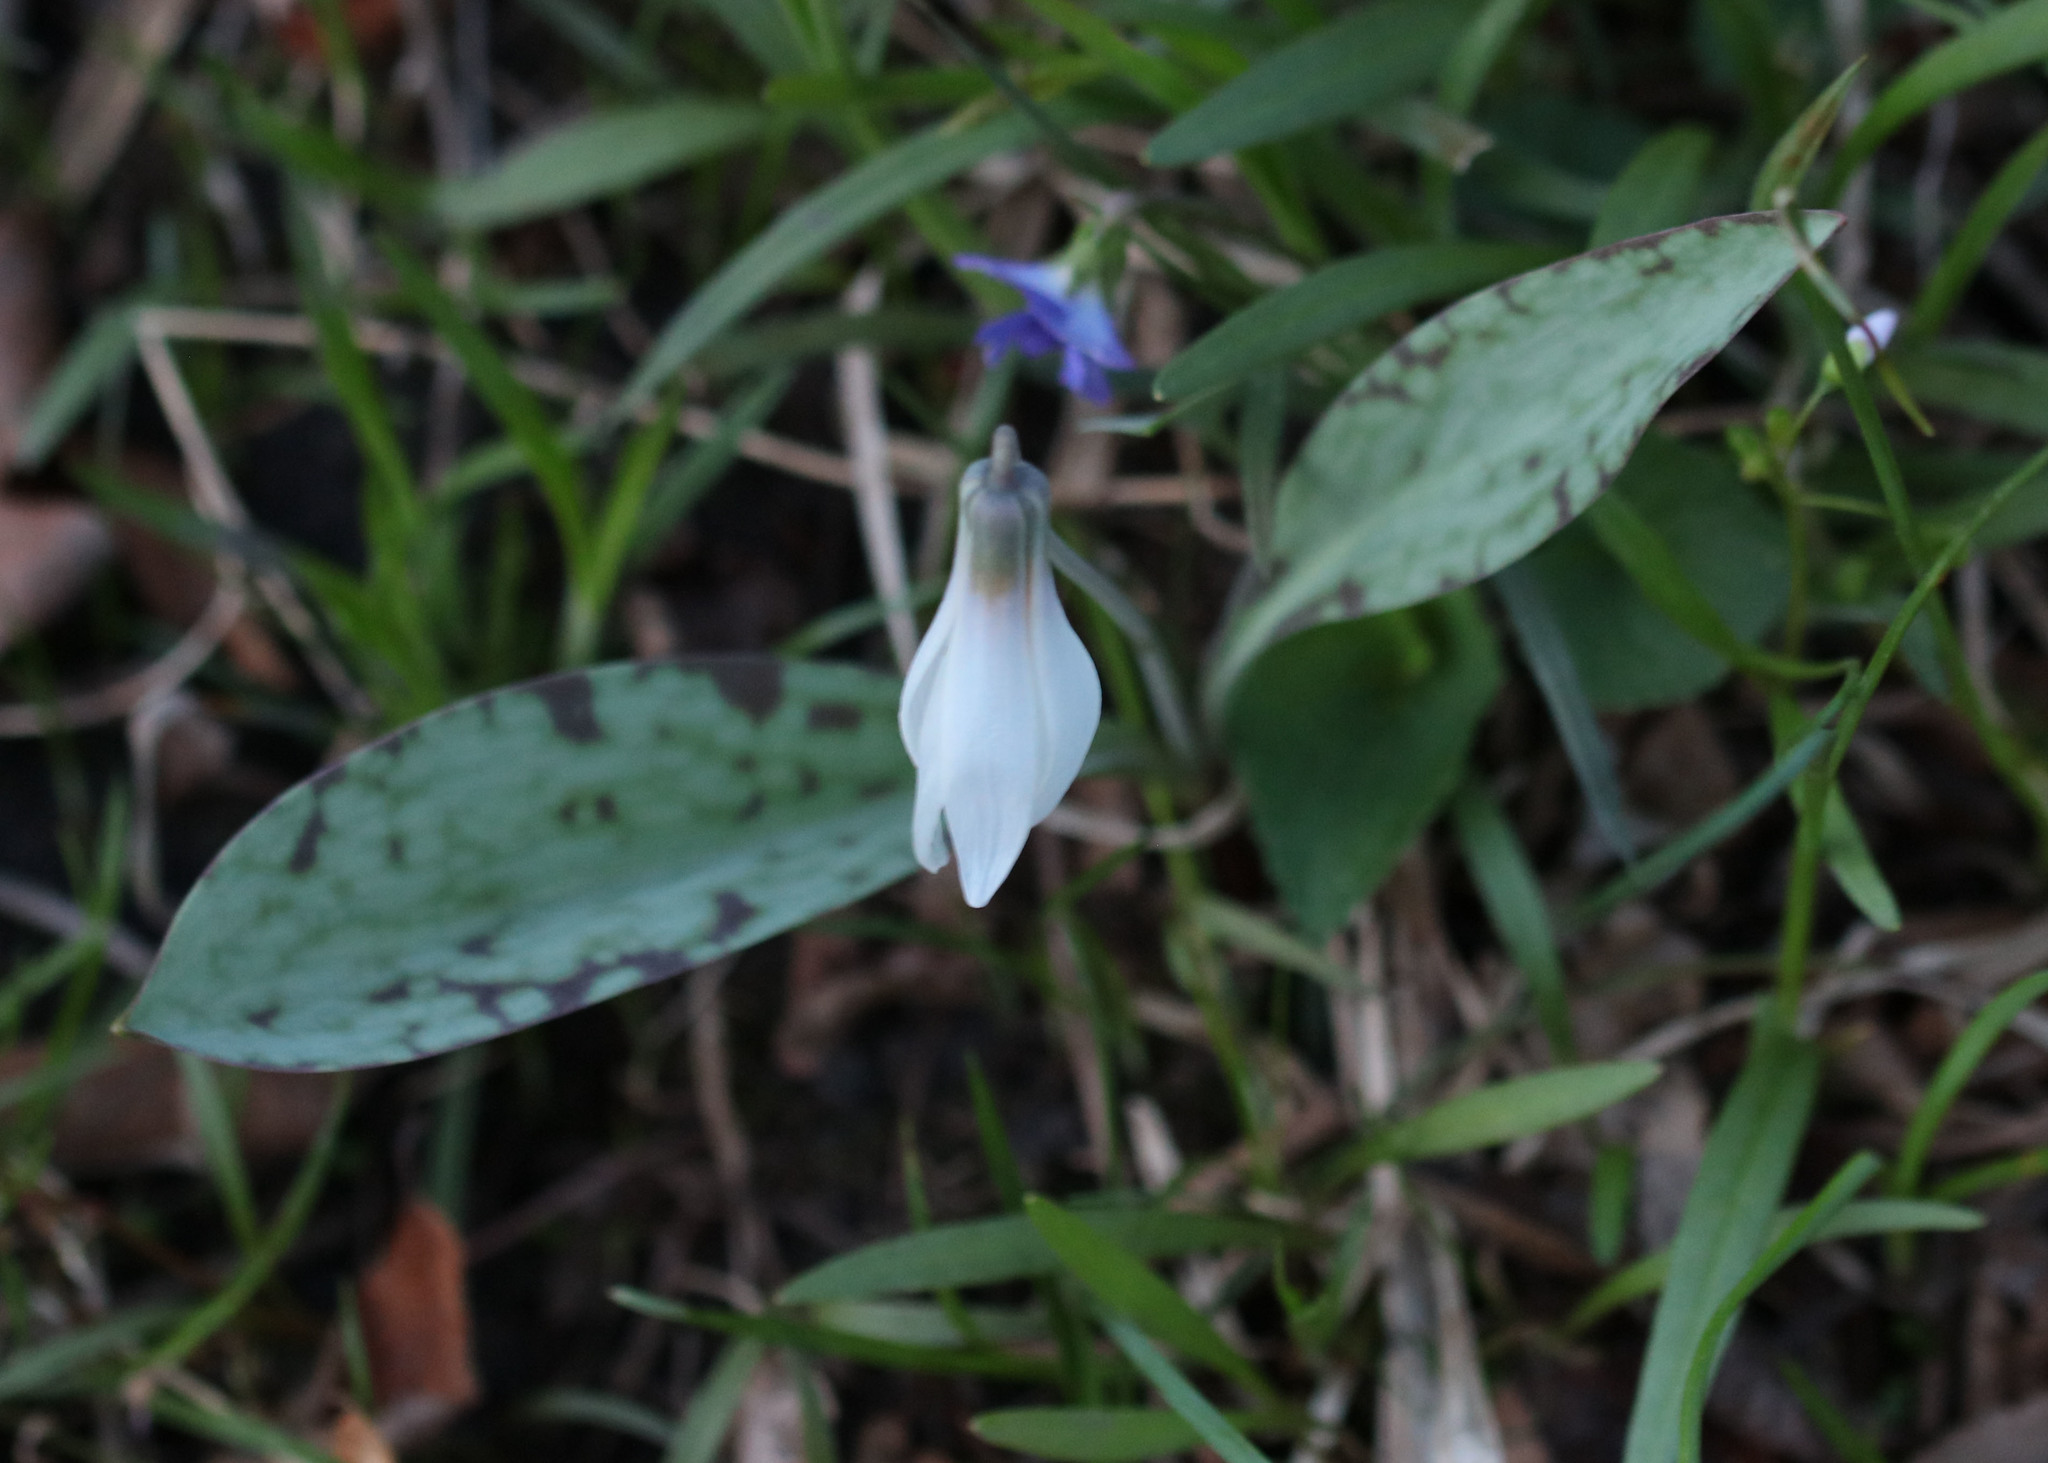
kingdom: Plantae
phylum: Tracheophyta
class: Liliopsida
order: Liliales
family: Liliaceae
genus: Erythronium
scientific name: Erythronium albidum
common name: White trout-lily
